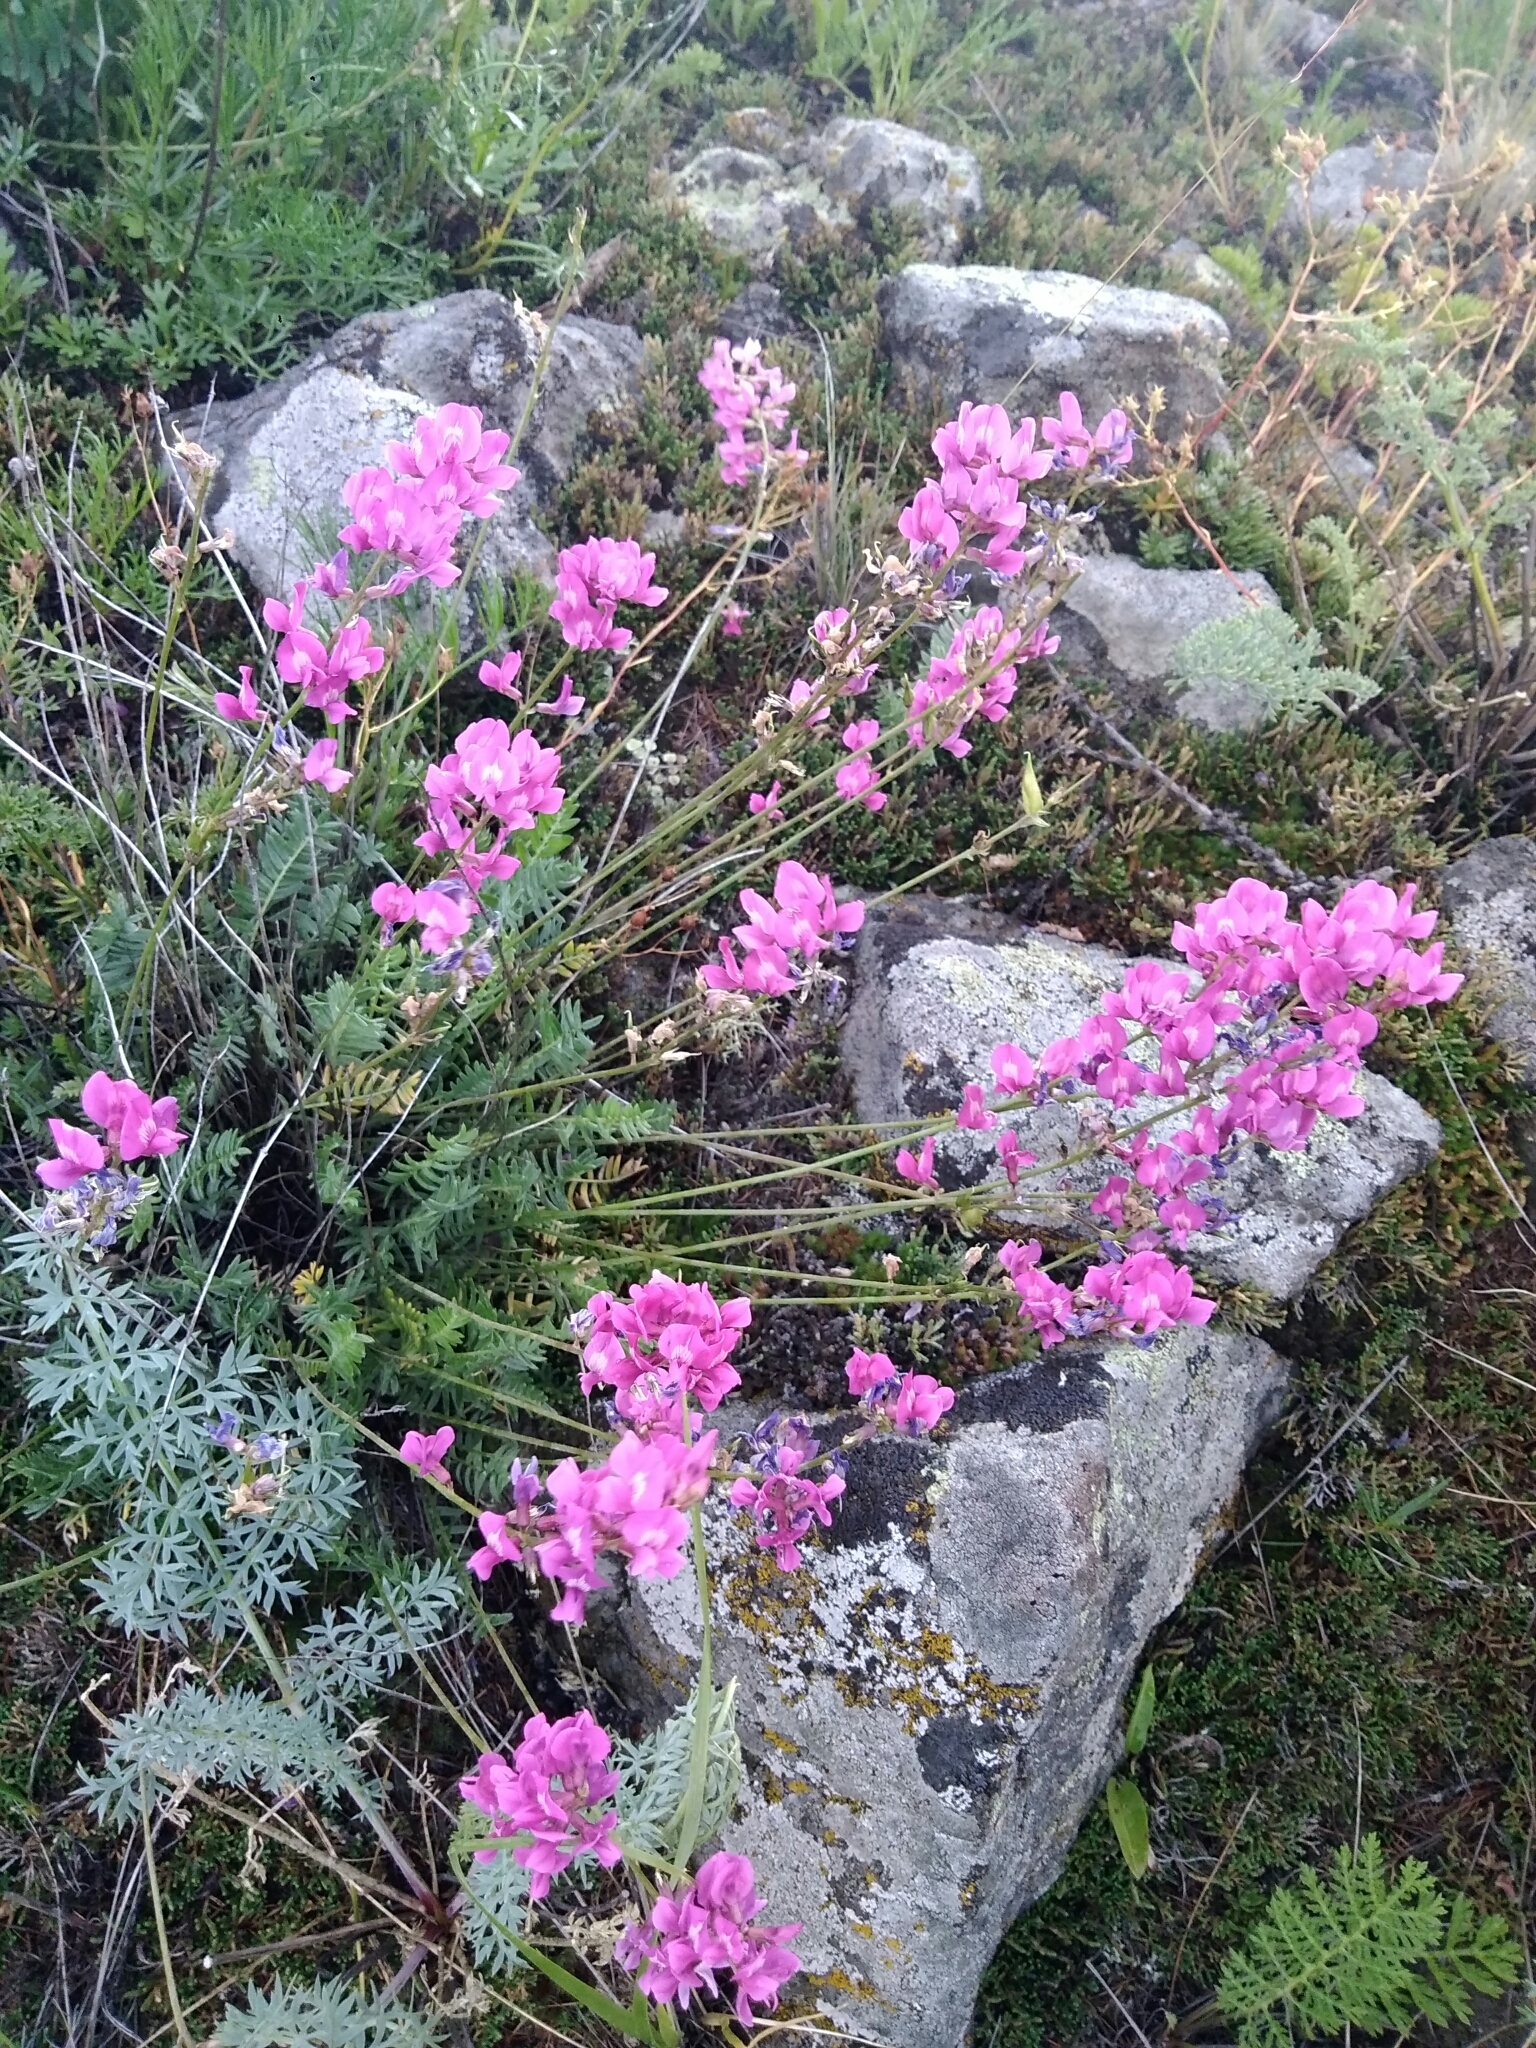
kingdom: Plantae
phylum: Tracheophyta
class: Magnoliopsida
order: Fabales
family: Fabaceae
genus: Oxytropis
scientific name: Oxytropis coerulea
